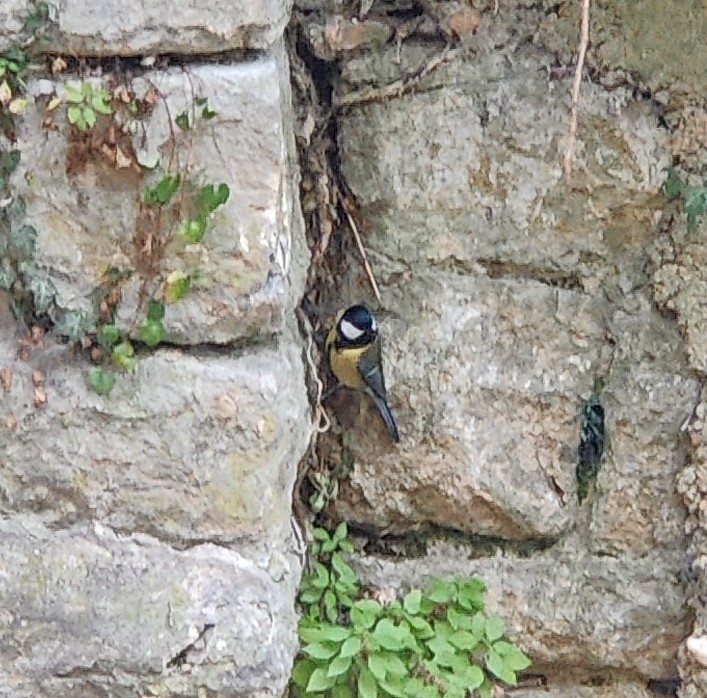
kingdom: Animalia
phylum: Chordata
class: Aves
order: Passeriformes
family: Paridae
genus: Parus
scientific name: Parus major
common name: Great tit
